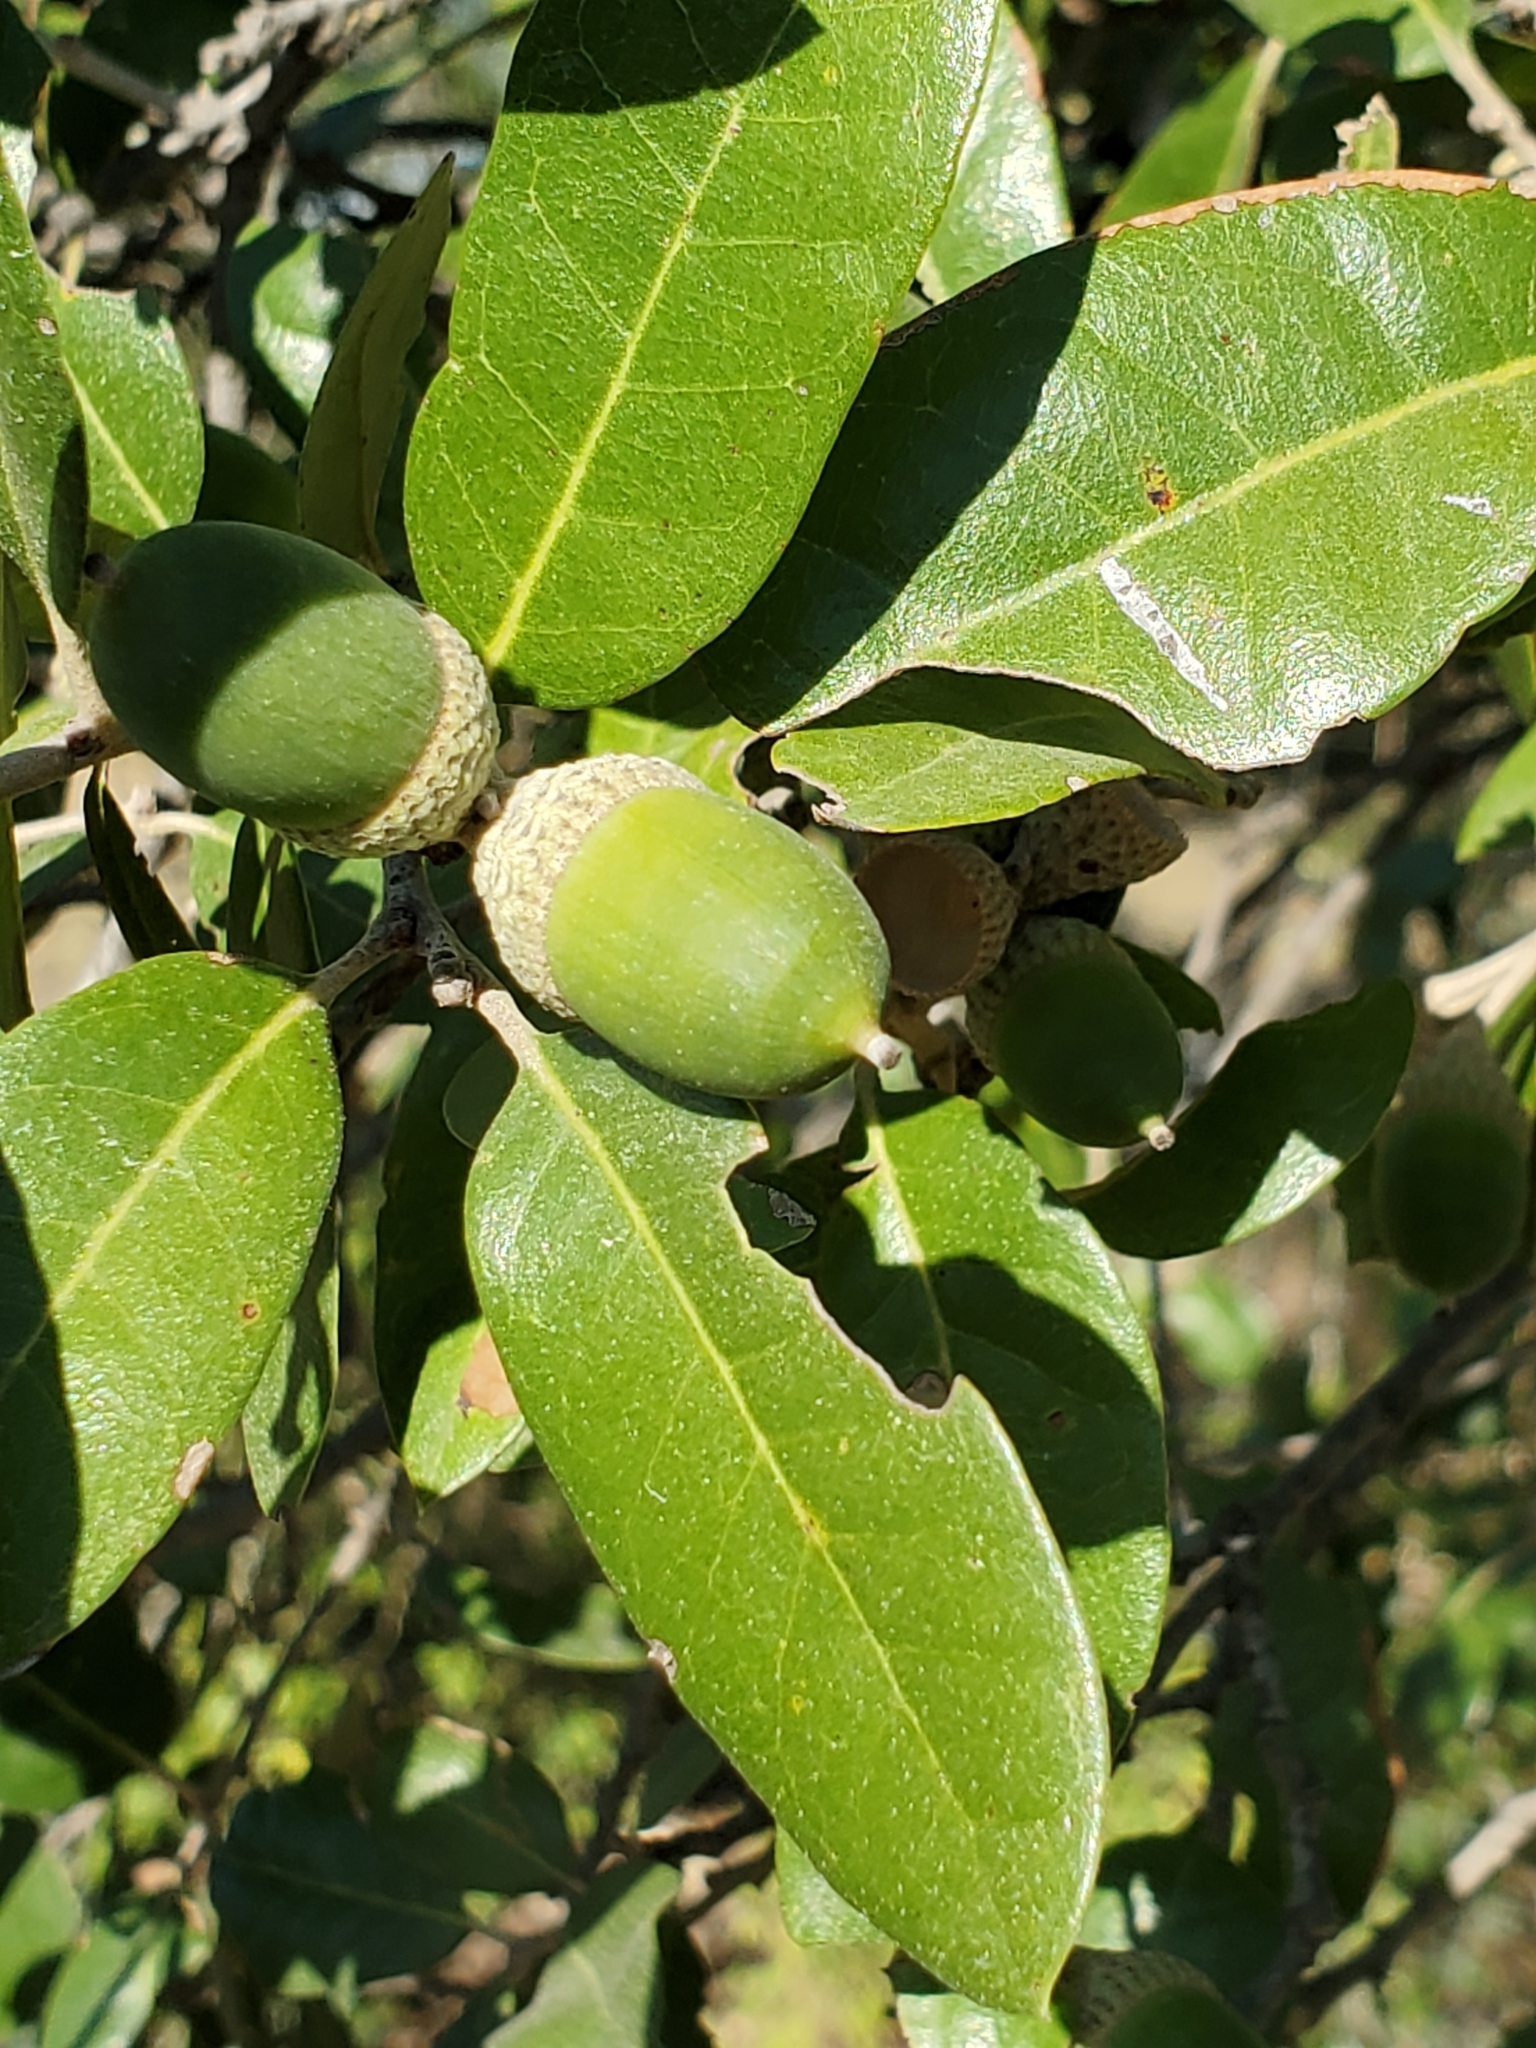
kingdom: Plantae
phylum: Tracheophyta
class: Magnoliopsida
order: Fagales
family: Fagaceae
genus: Quercus
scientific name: Quercus fusiformis
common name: Texas live oak
